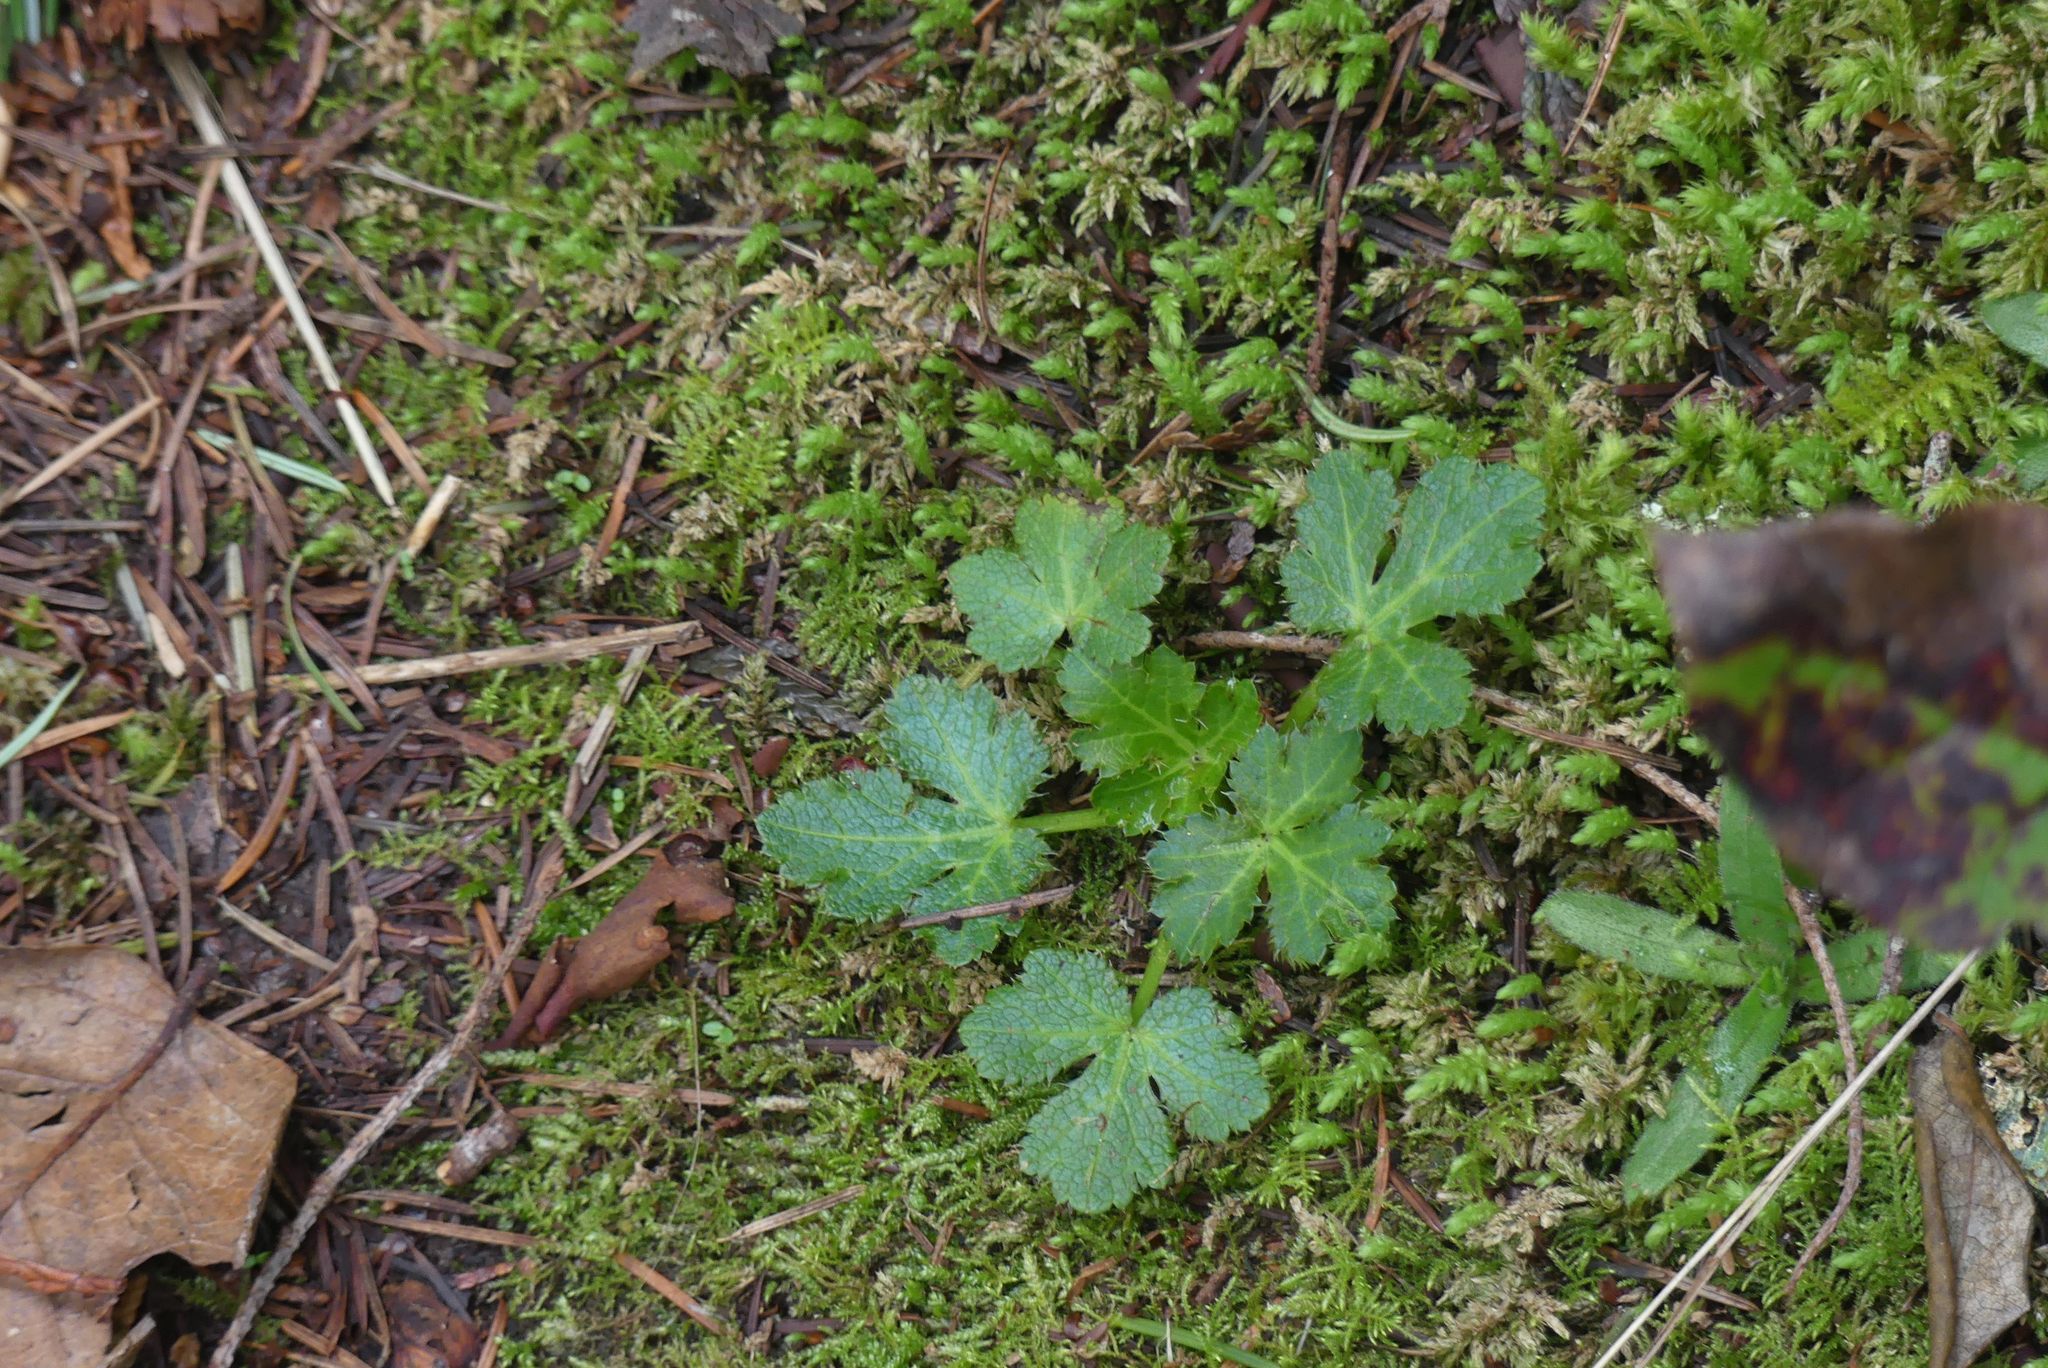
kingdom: Plantae
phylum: Tracheophyta
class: Magnoliopsida
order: Apiales
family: Apiaceae
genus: Sanicula
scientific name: Sanicula crassicaulis
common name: Western snakeroot
